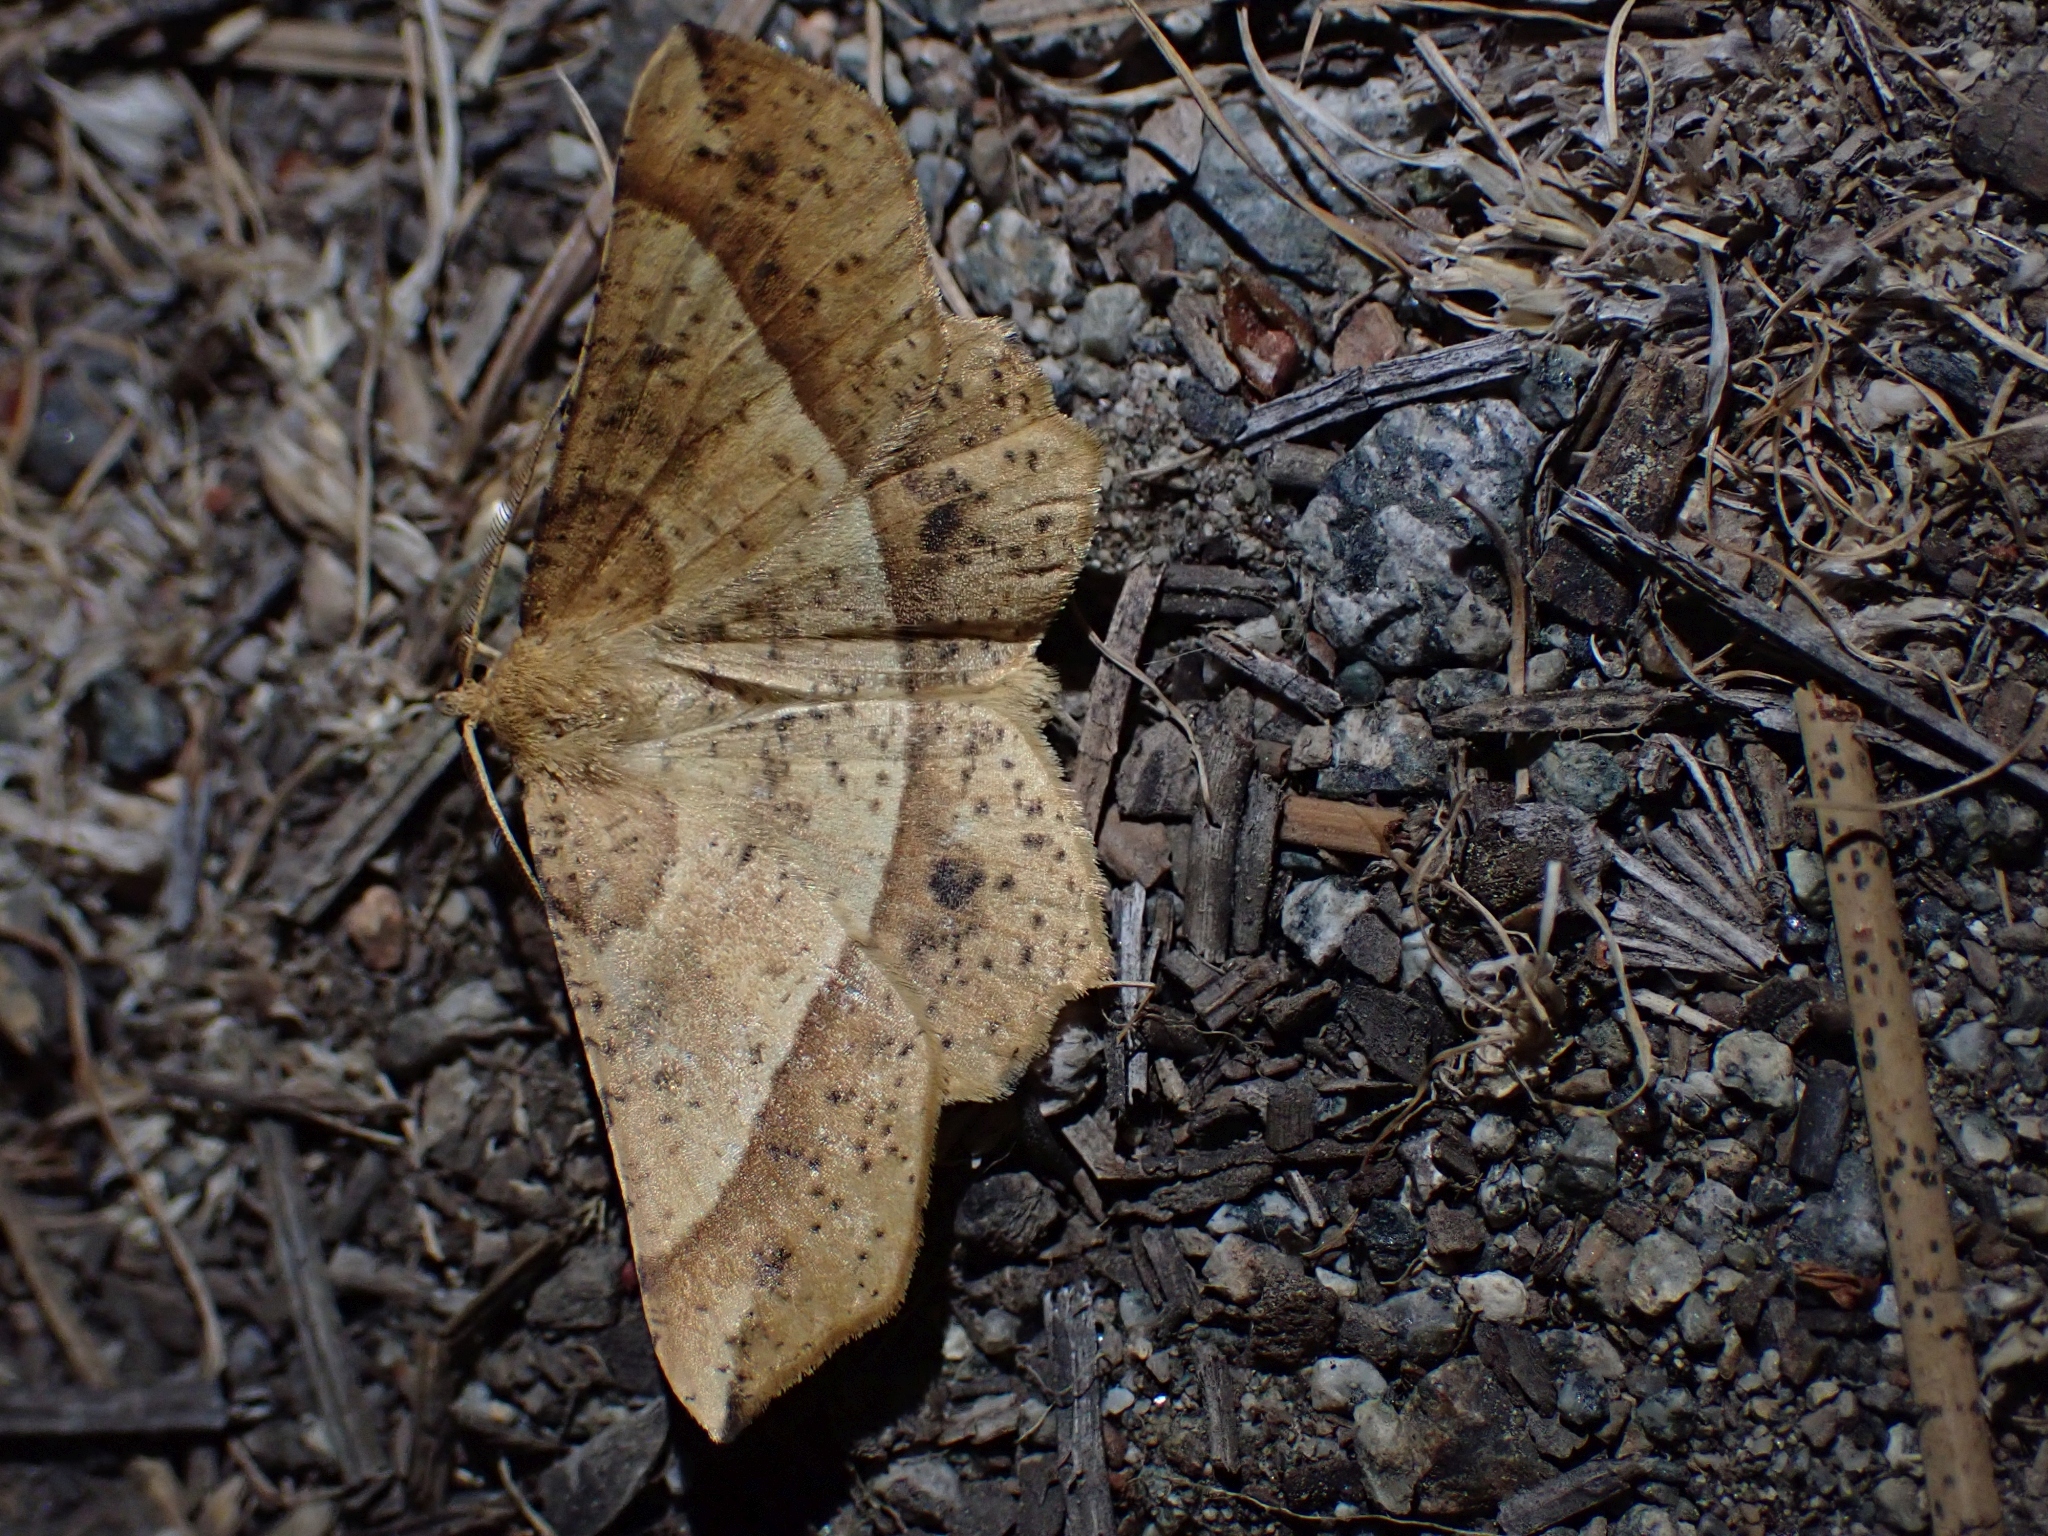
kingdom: Animalia
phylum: Arthropoda
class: Insecta
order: Lepidoptera
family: Geometridae
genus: Euchlaena
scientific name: Euchlaena tigrinaria
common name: Mottled euchlaena moth
